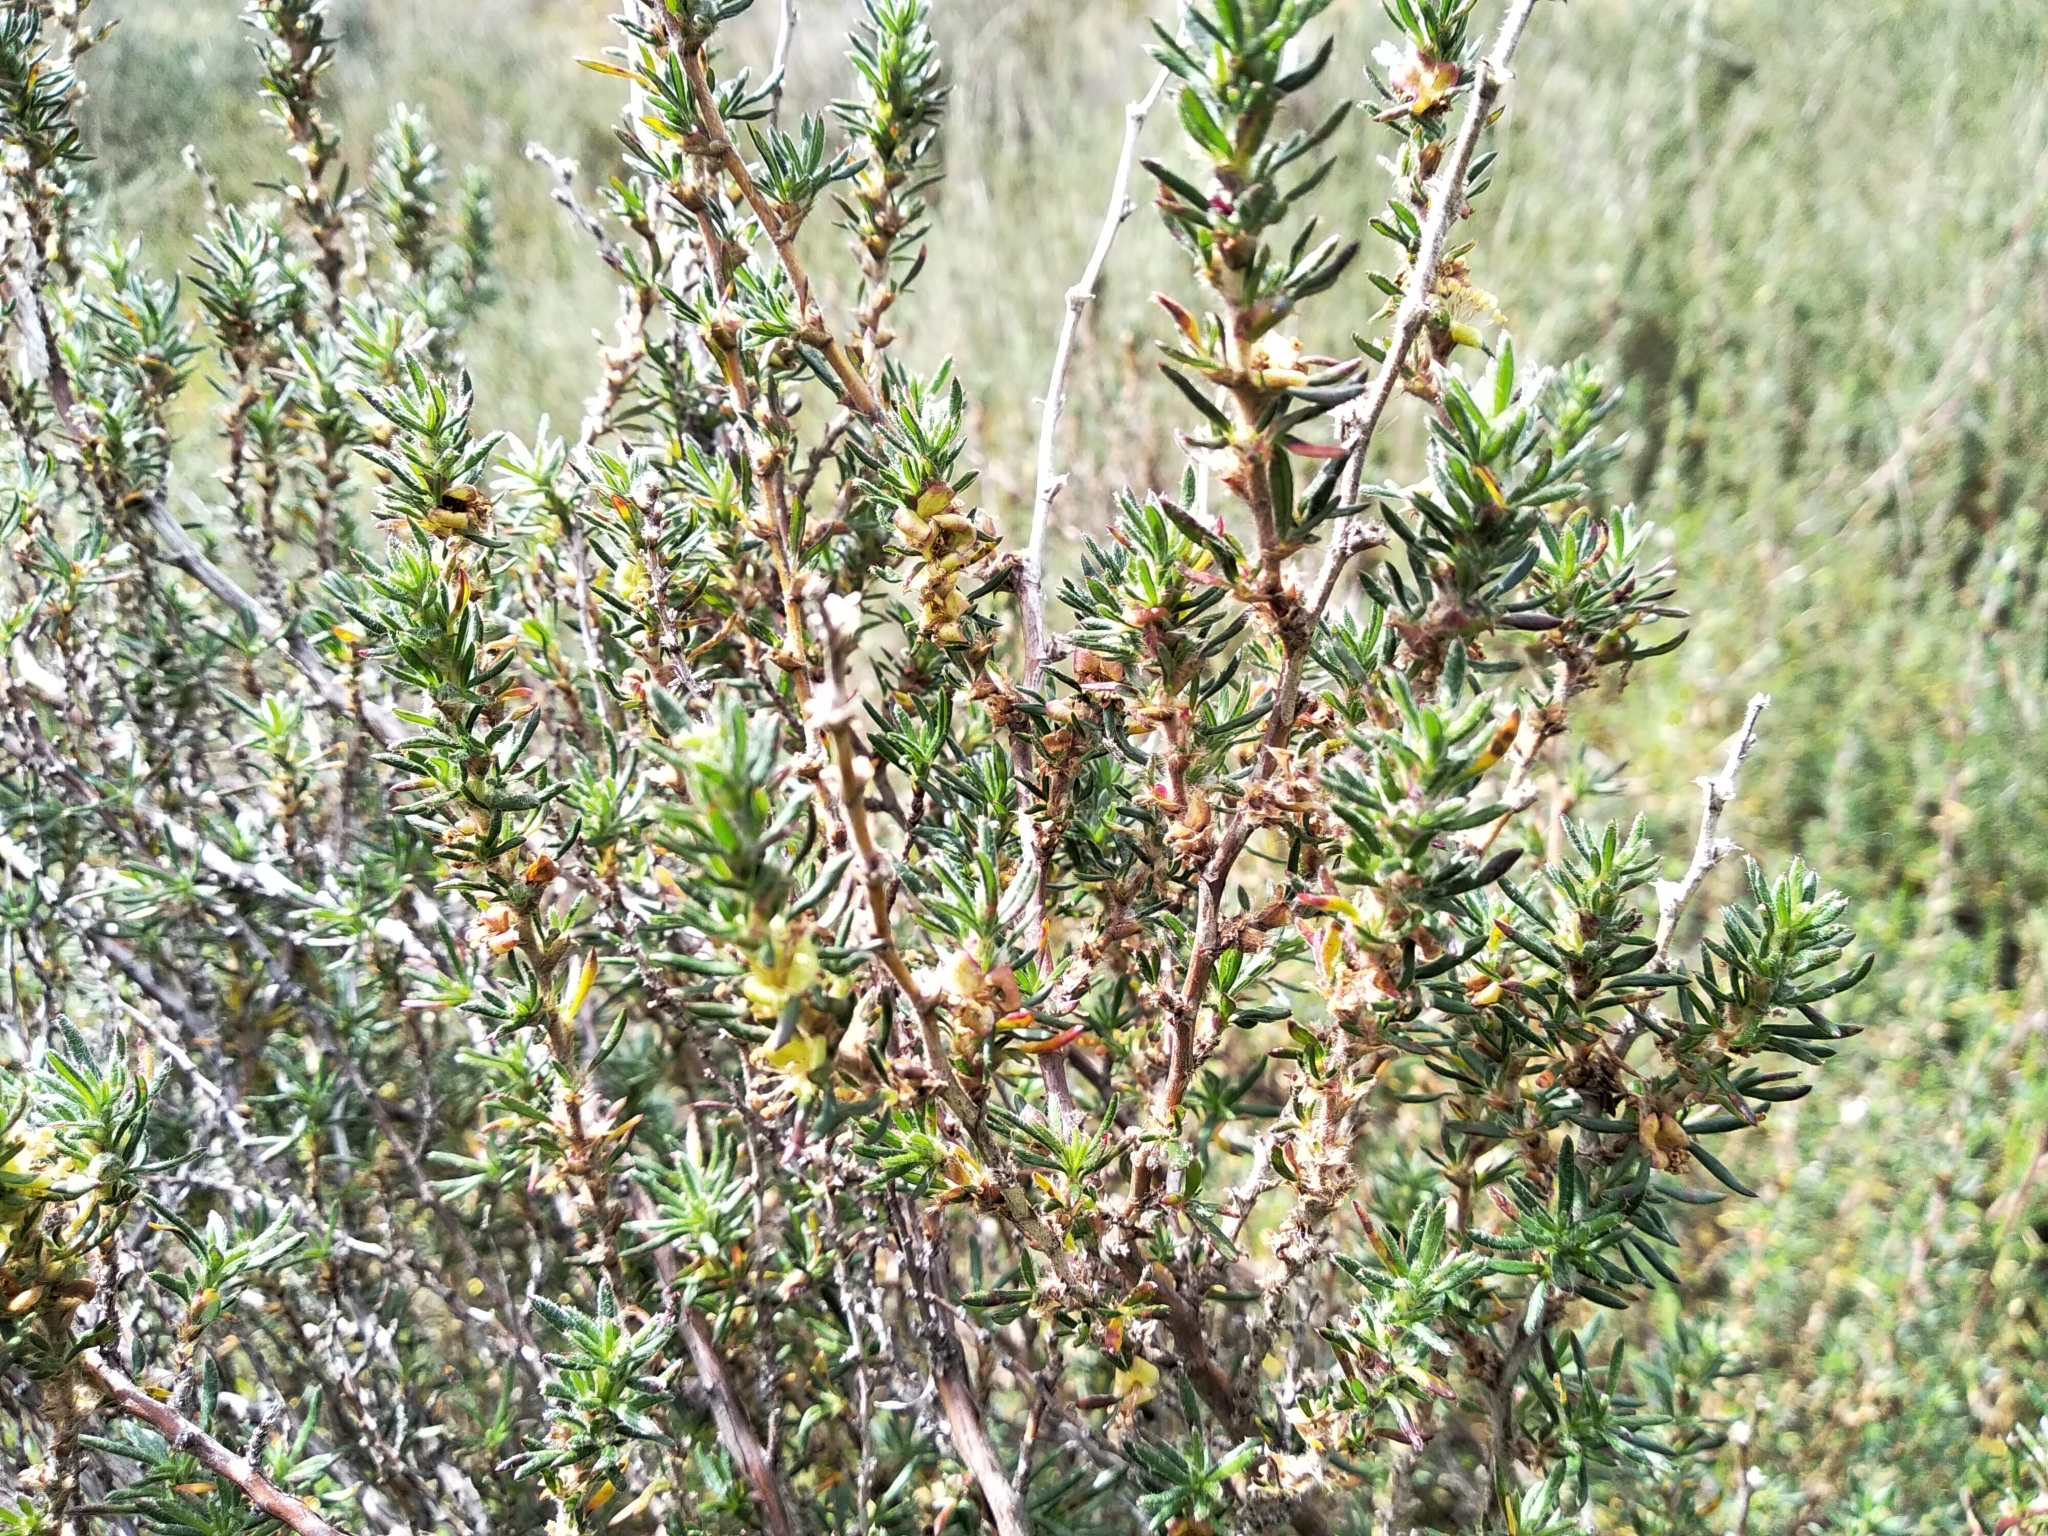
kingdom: Plantae
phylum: Tracheophyta
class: Magnoliopsida
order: Rosales
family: Rosaceae
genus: Cliffortia
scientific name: Cliffortia hirta
